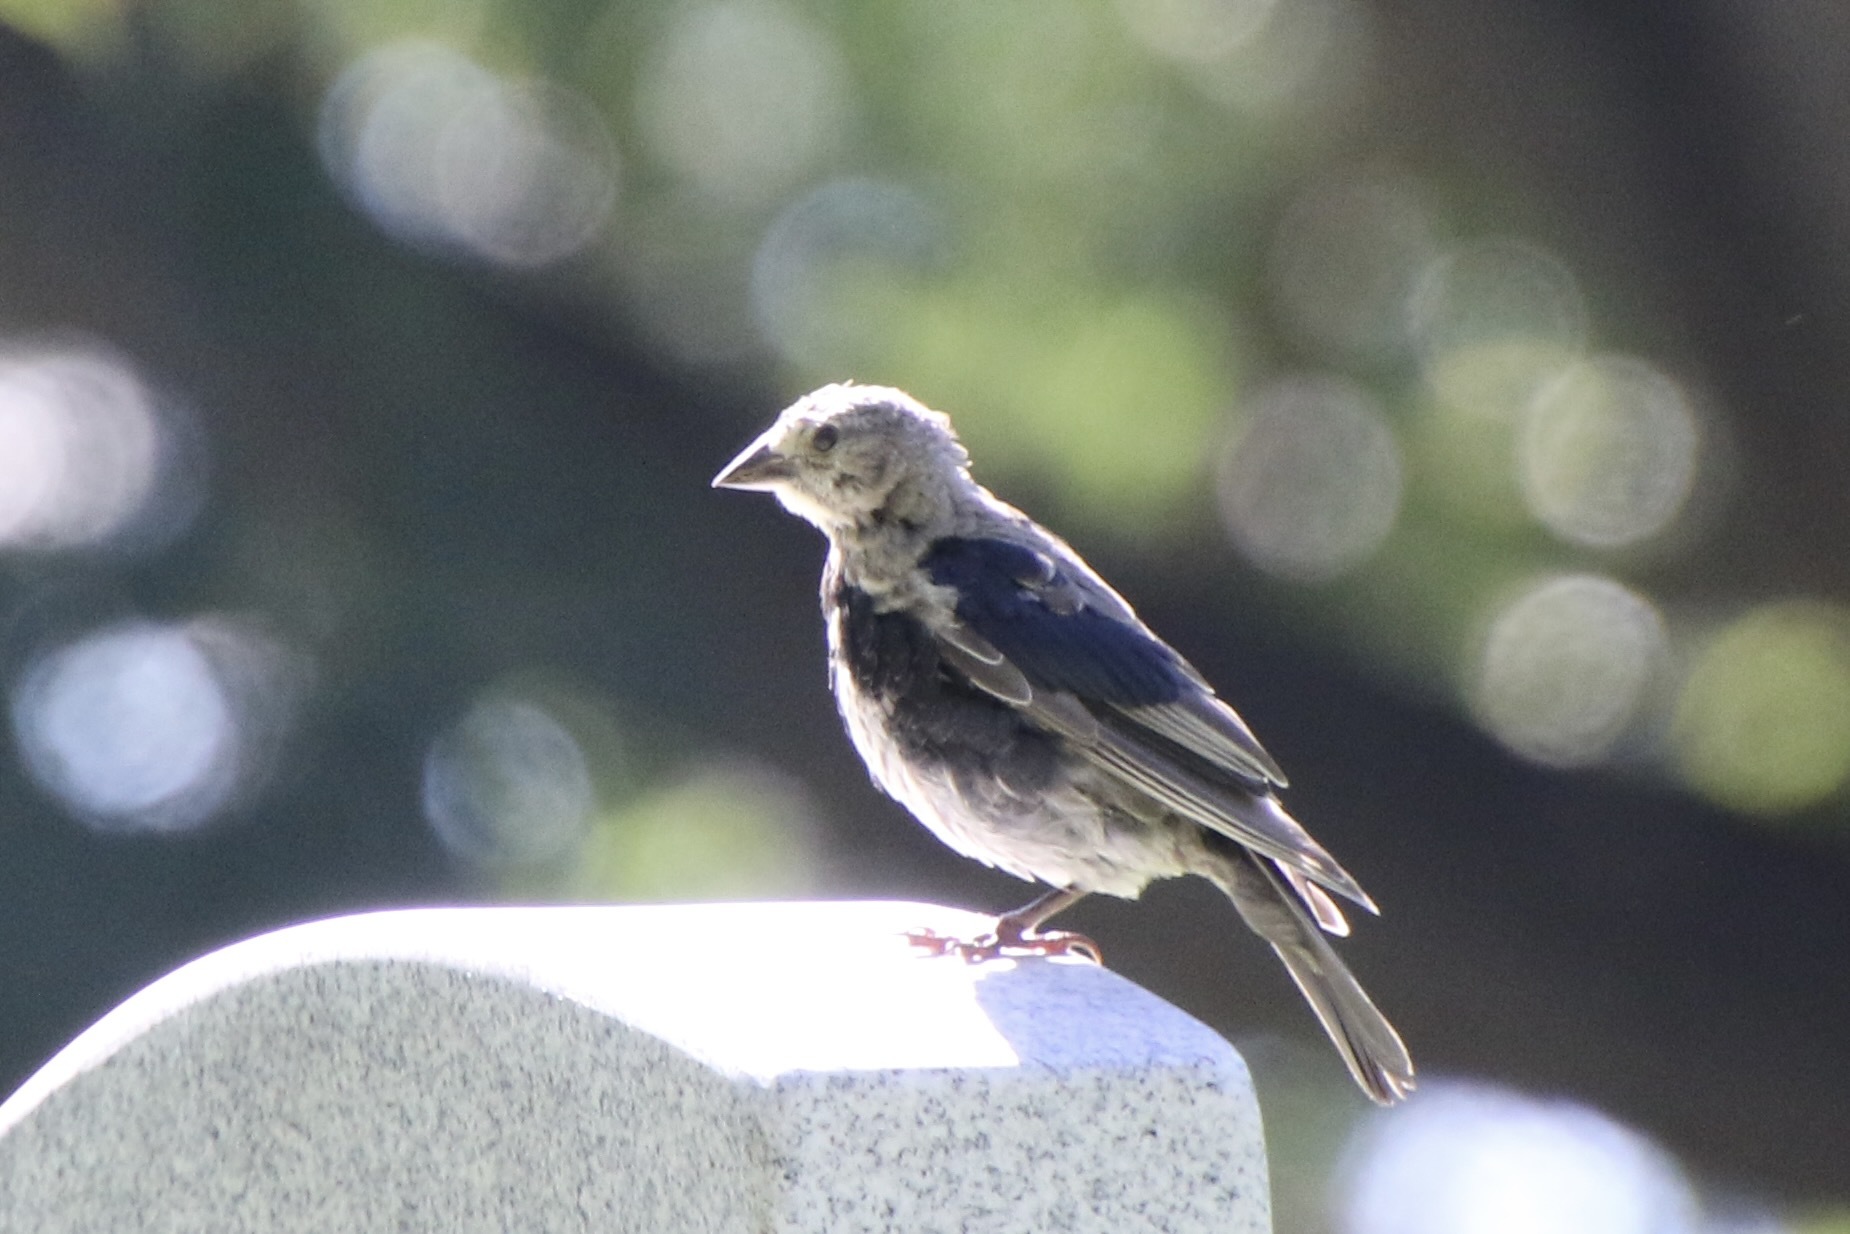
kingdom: Animalia
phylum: Chordata
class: Aves
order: Passeriformes
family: Icteridae
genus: Molothrus
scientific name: Molothrus ater
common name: Brown-headed cowbird
